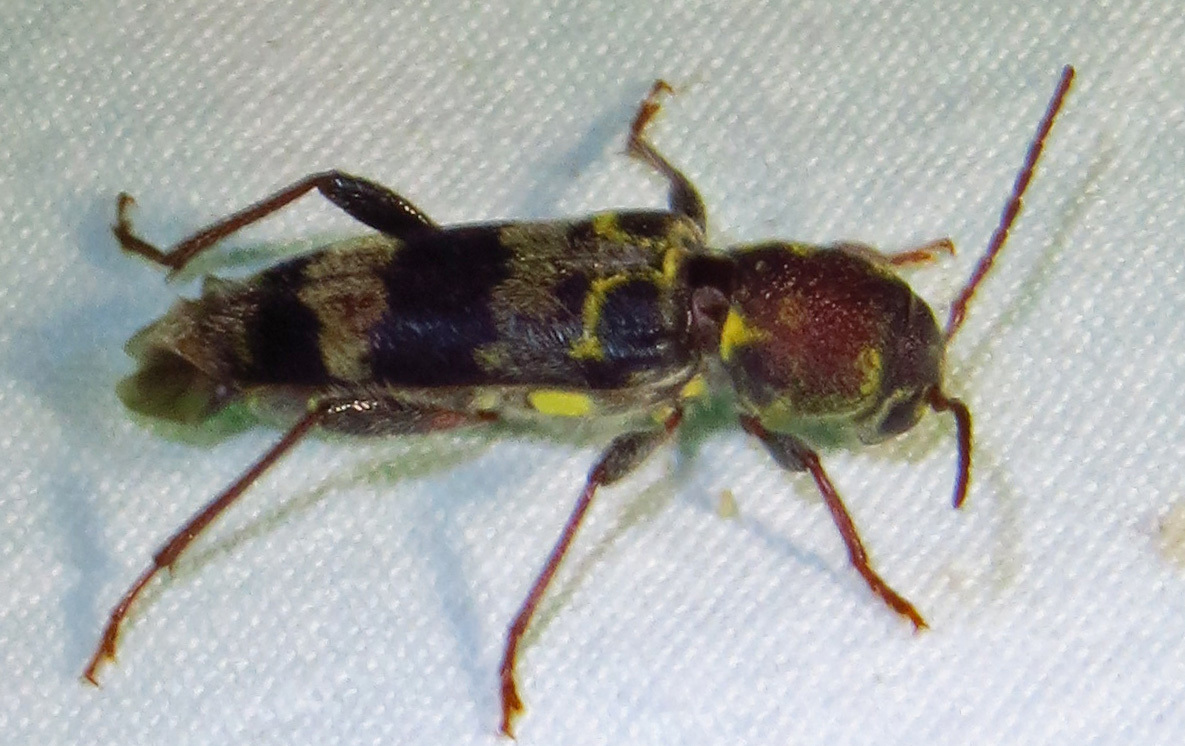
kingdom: Animalia
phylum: Arthropoda
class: Insecta
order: Coleoptera
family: Cerambycidae
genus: Xylotrechus
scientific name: Xylotrechus colonus
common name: Long-horned beetle
